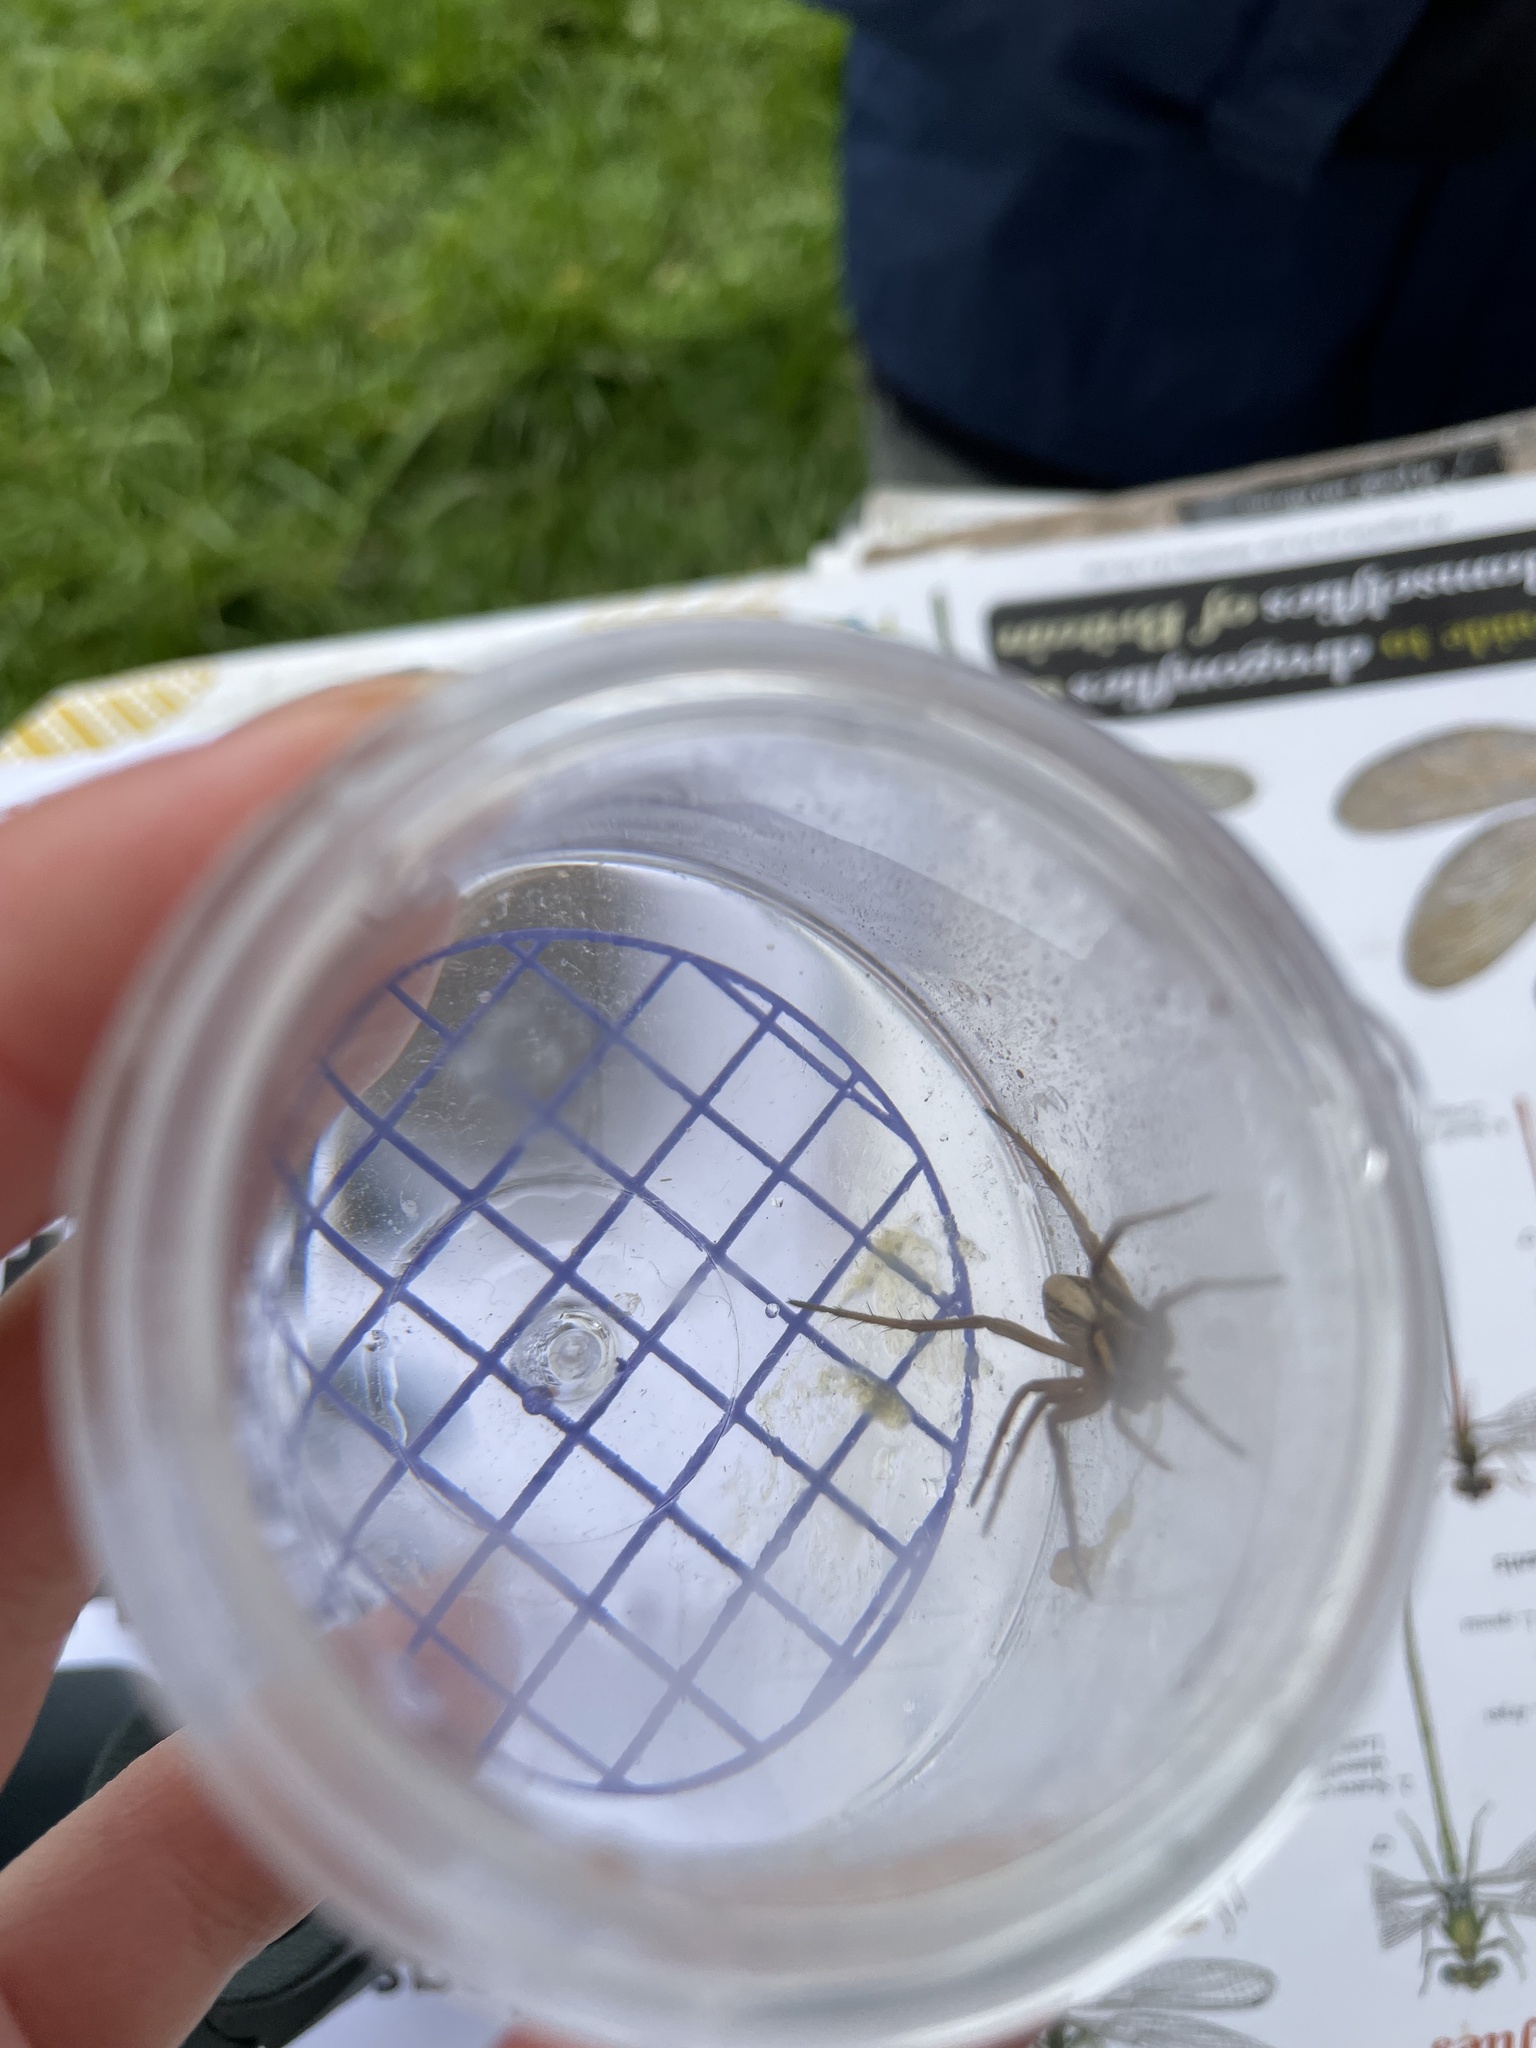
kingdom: Animalia
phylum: Arthropoda
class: Arachnida
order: Araneae
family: Pisauridae
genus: Pisaura
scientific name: Pisaura mirabilis
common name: Tent spider
